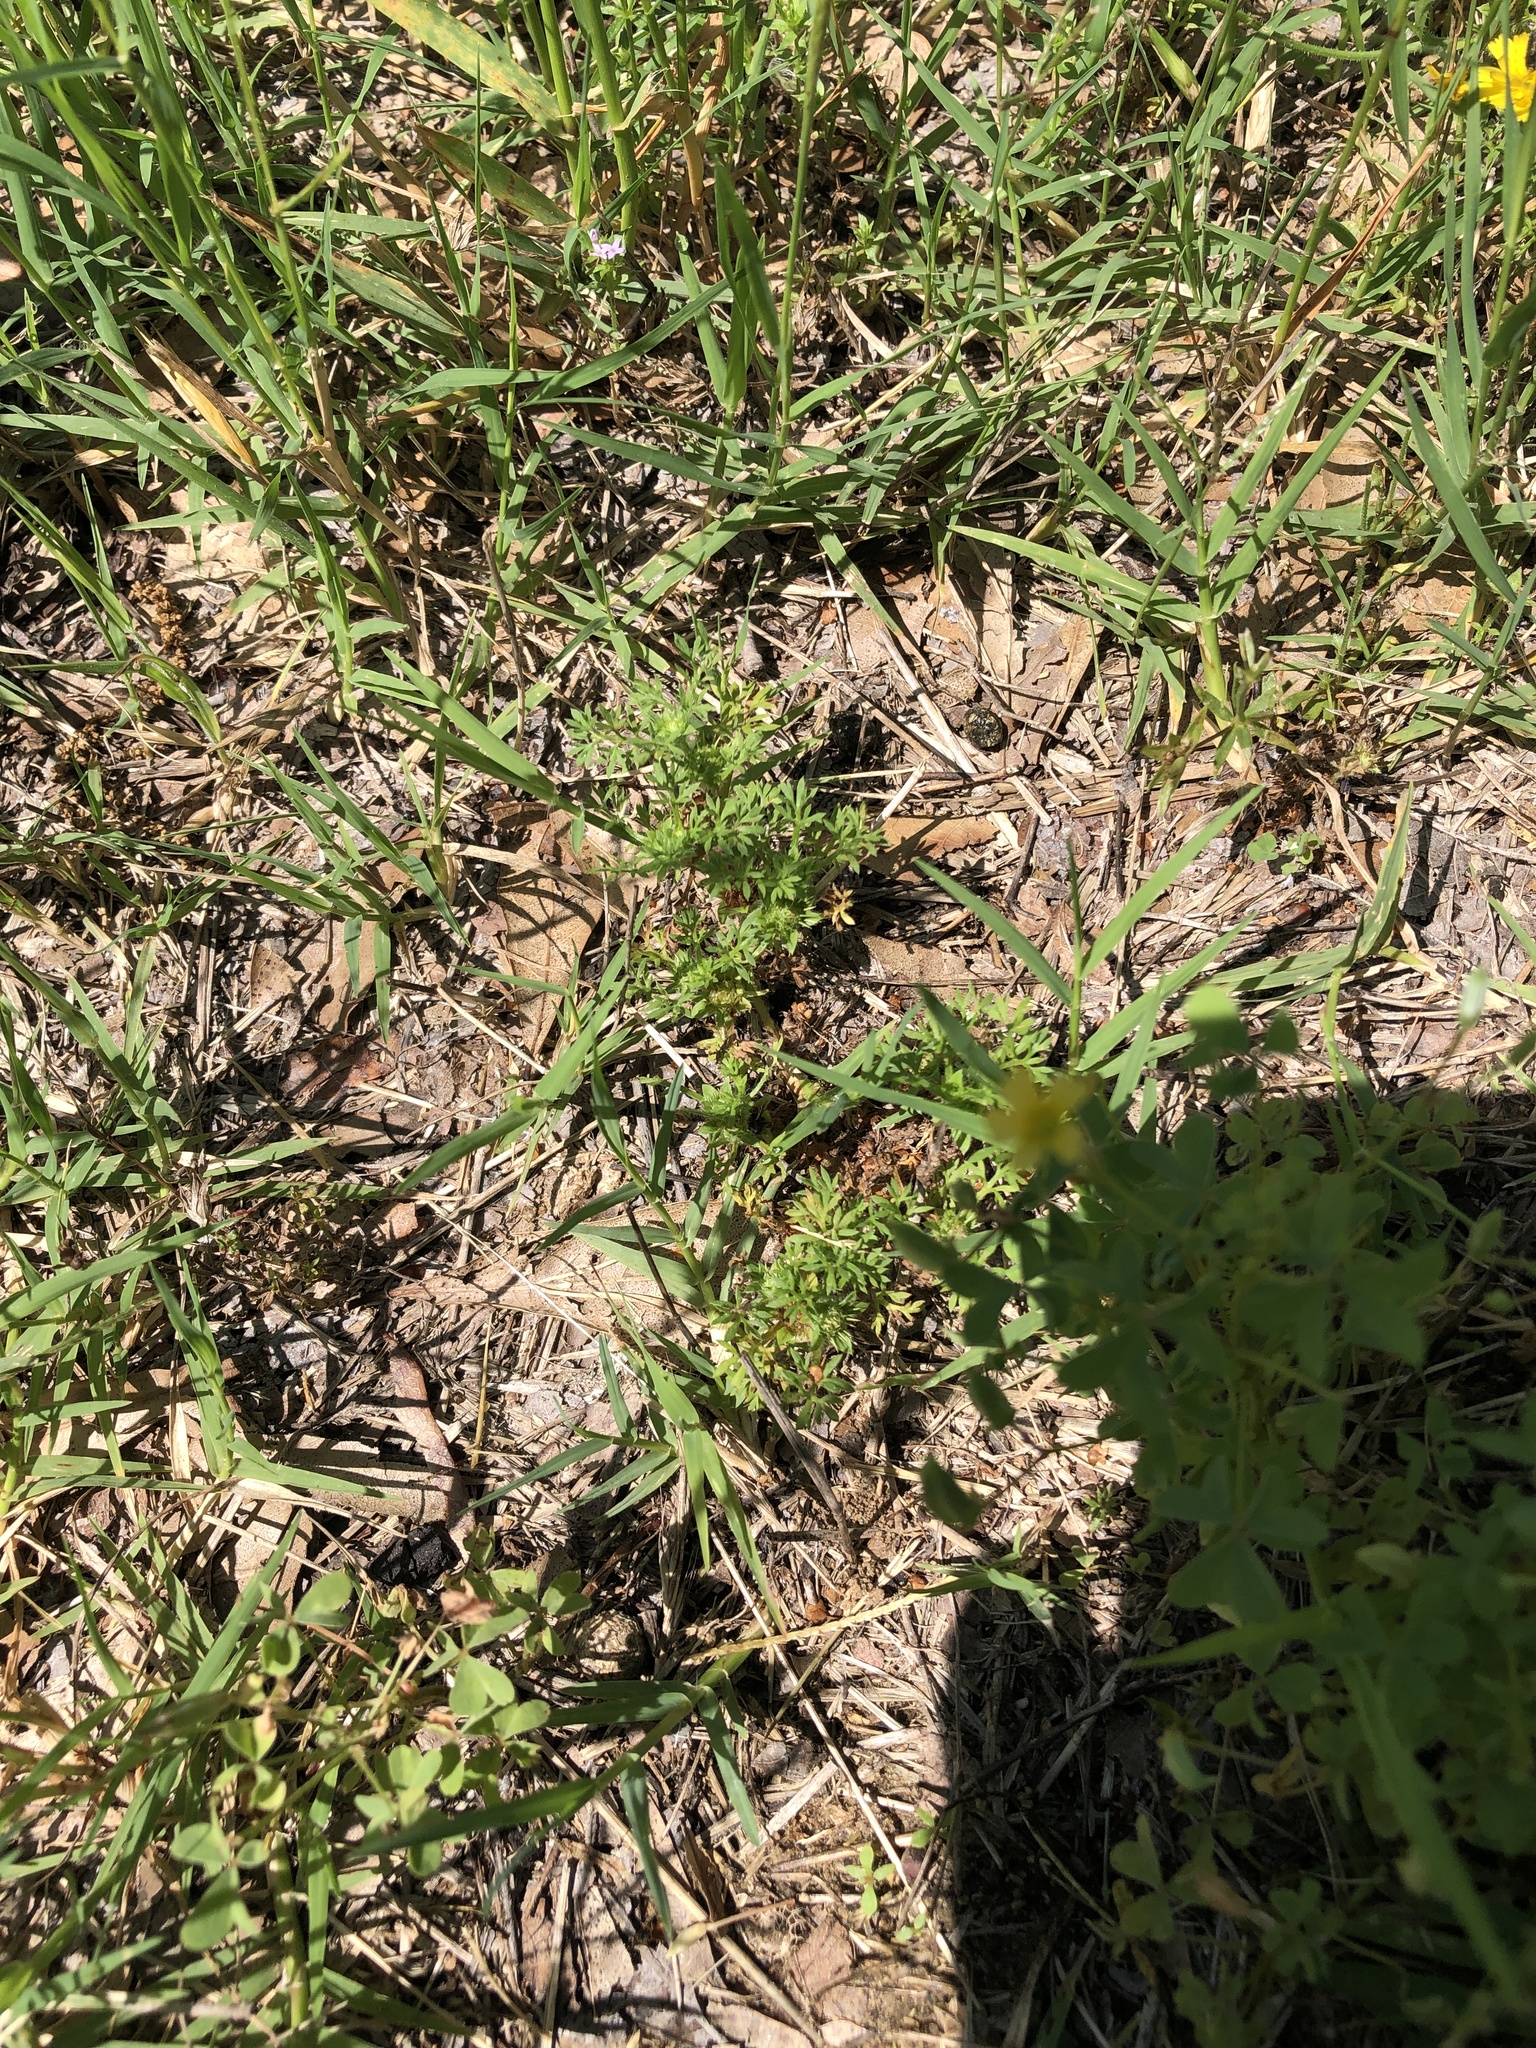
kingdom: Plantae
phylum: Tracheophyta
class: Magnoliopsida
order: Asterales
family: Asteraceae
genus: Soliva
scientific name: Soliva sessilis
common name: Field burrweed
